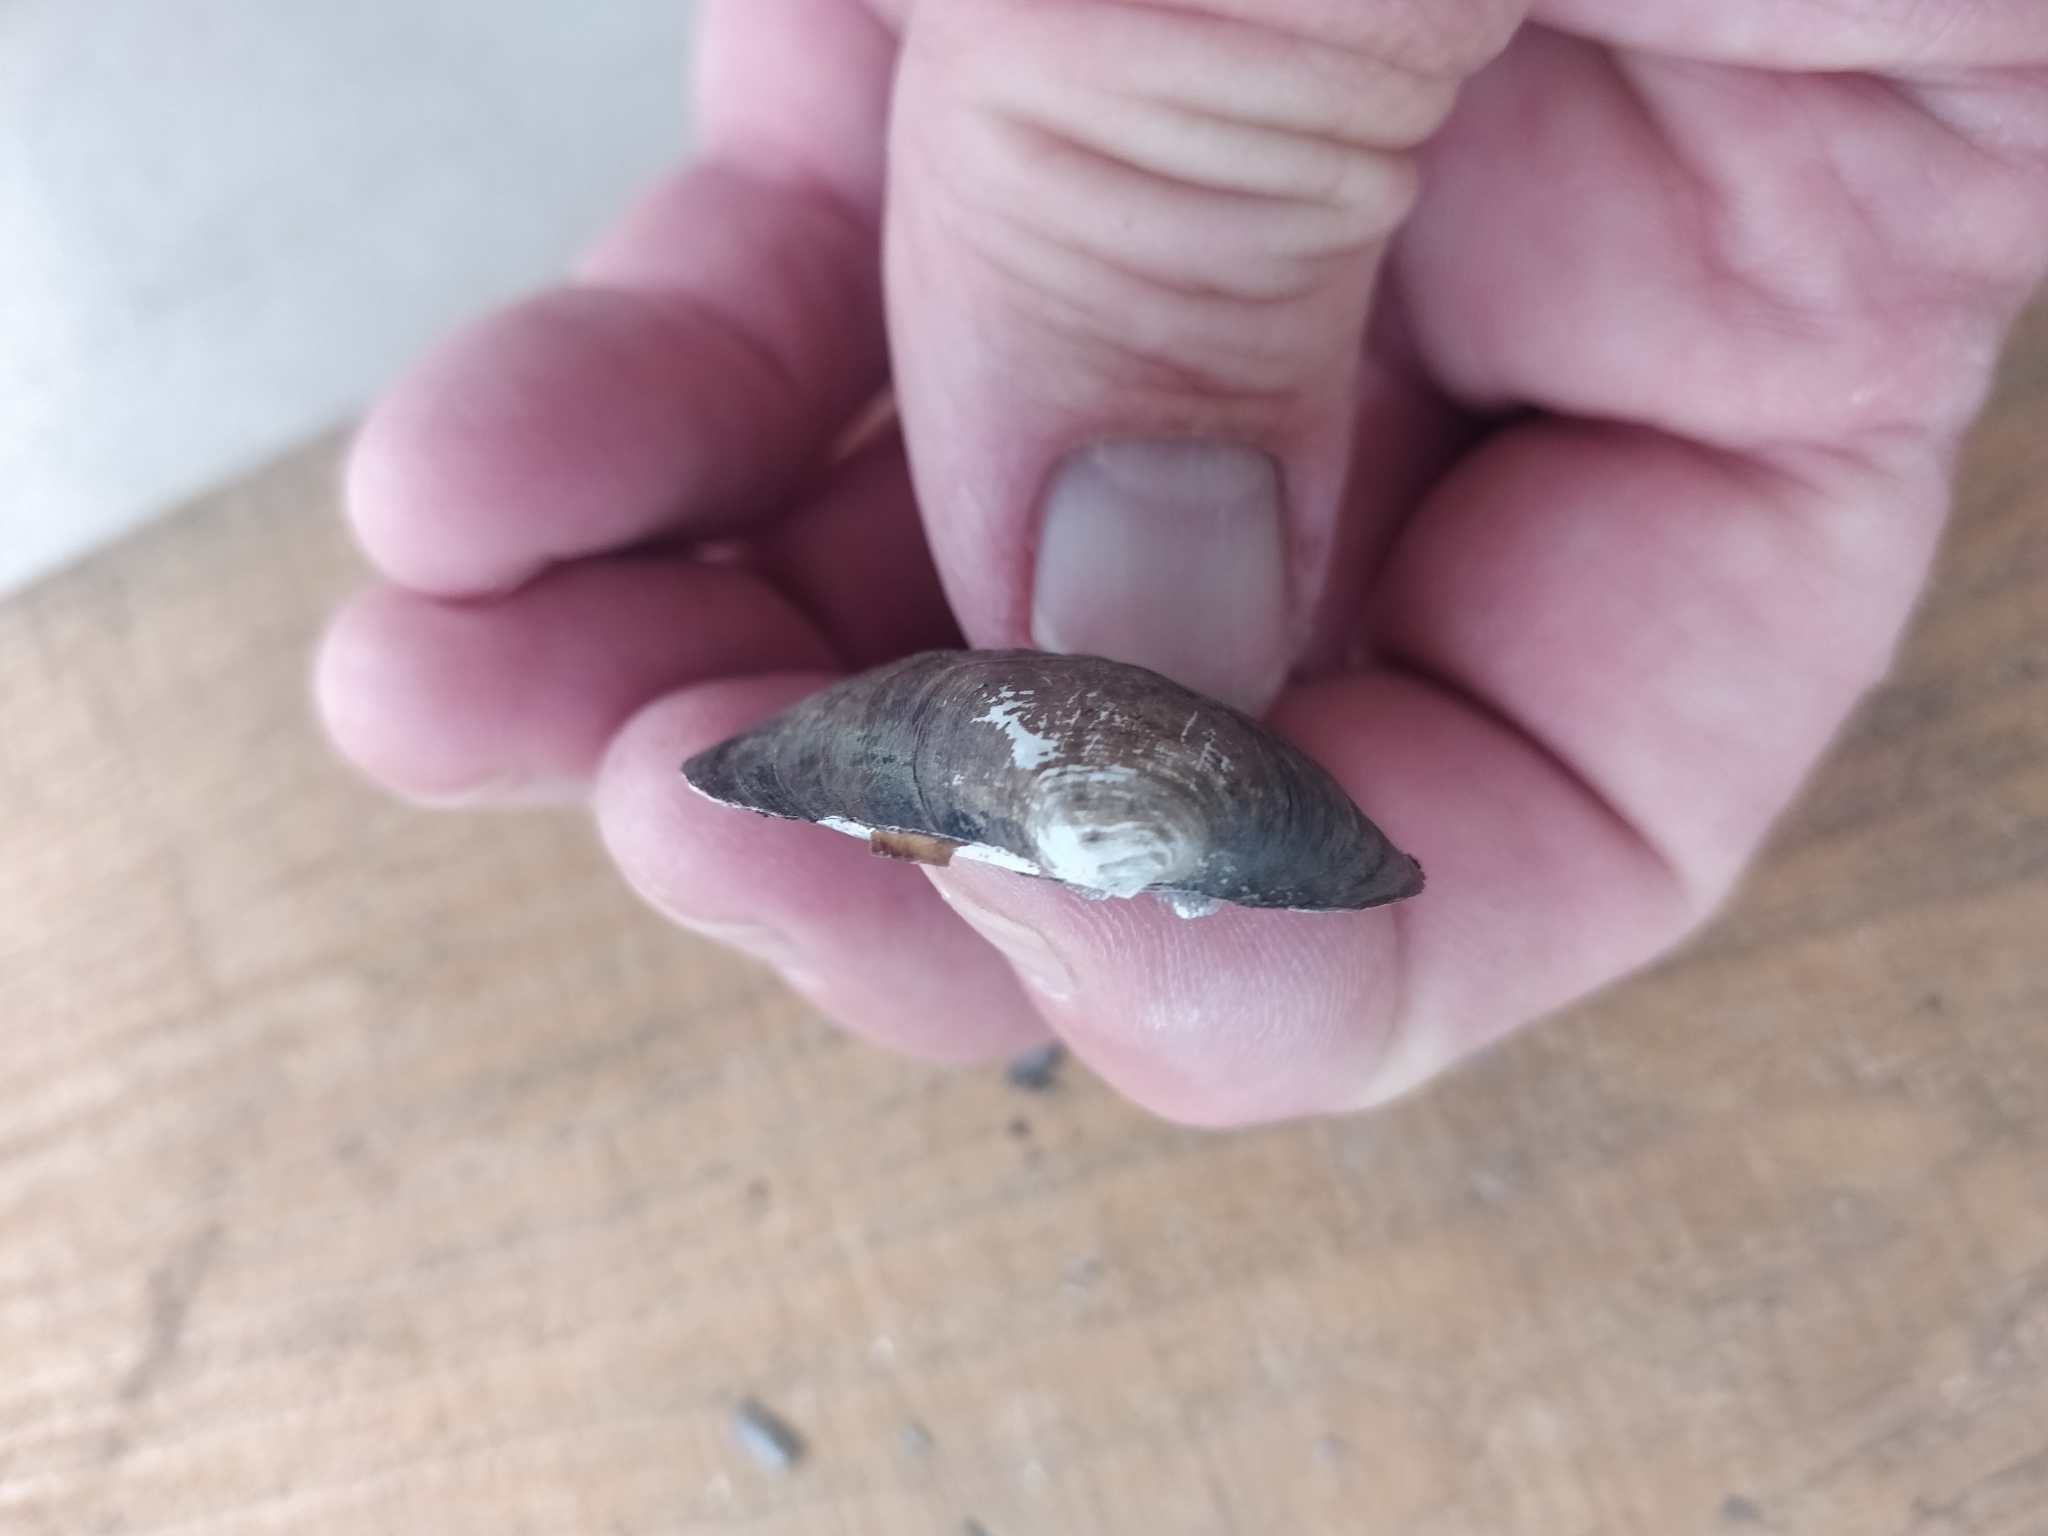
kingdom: Animalia
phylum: Mollusca
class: Bivalvia
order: Unionida
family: Unionidae
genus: Amblema
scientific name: Amblema plicata
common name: Threeridge
